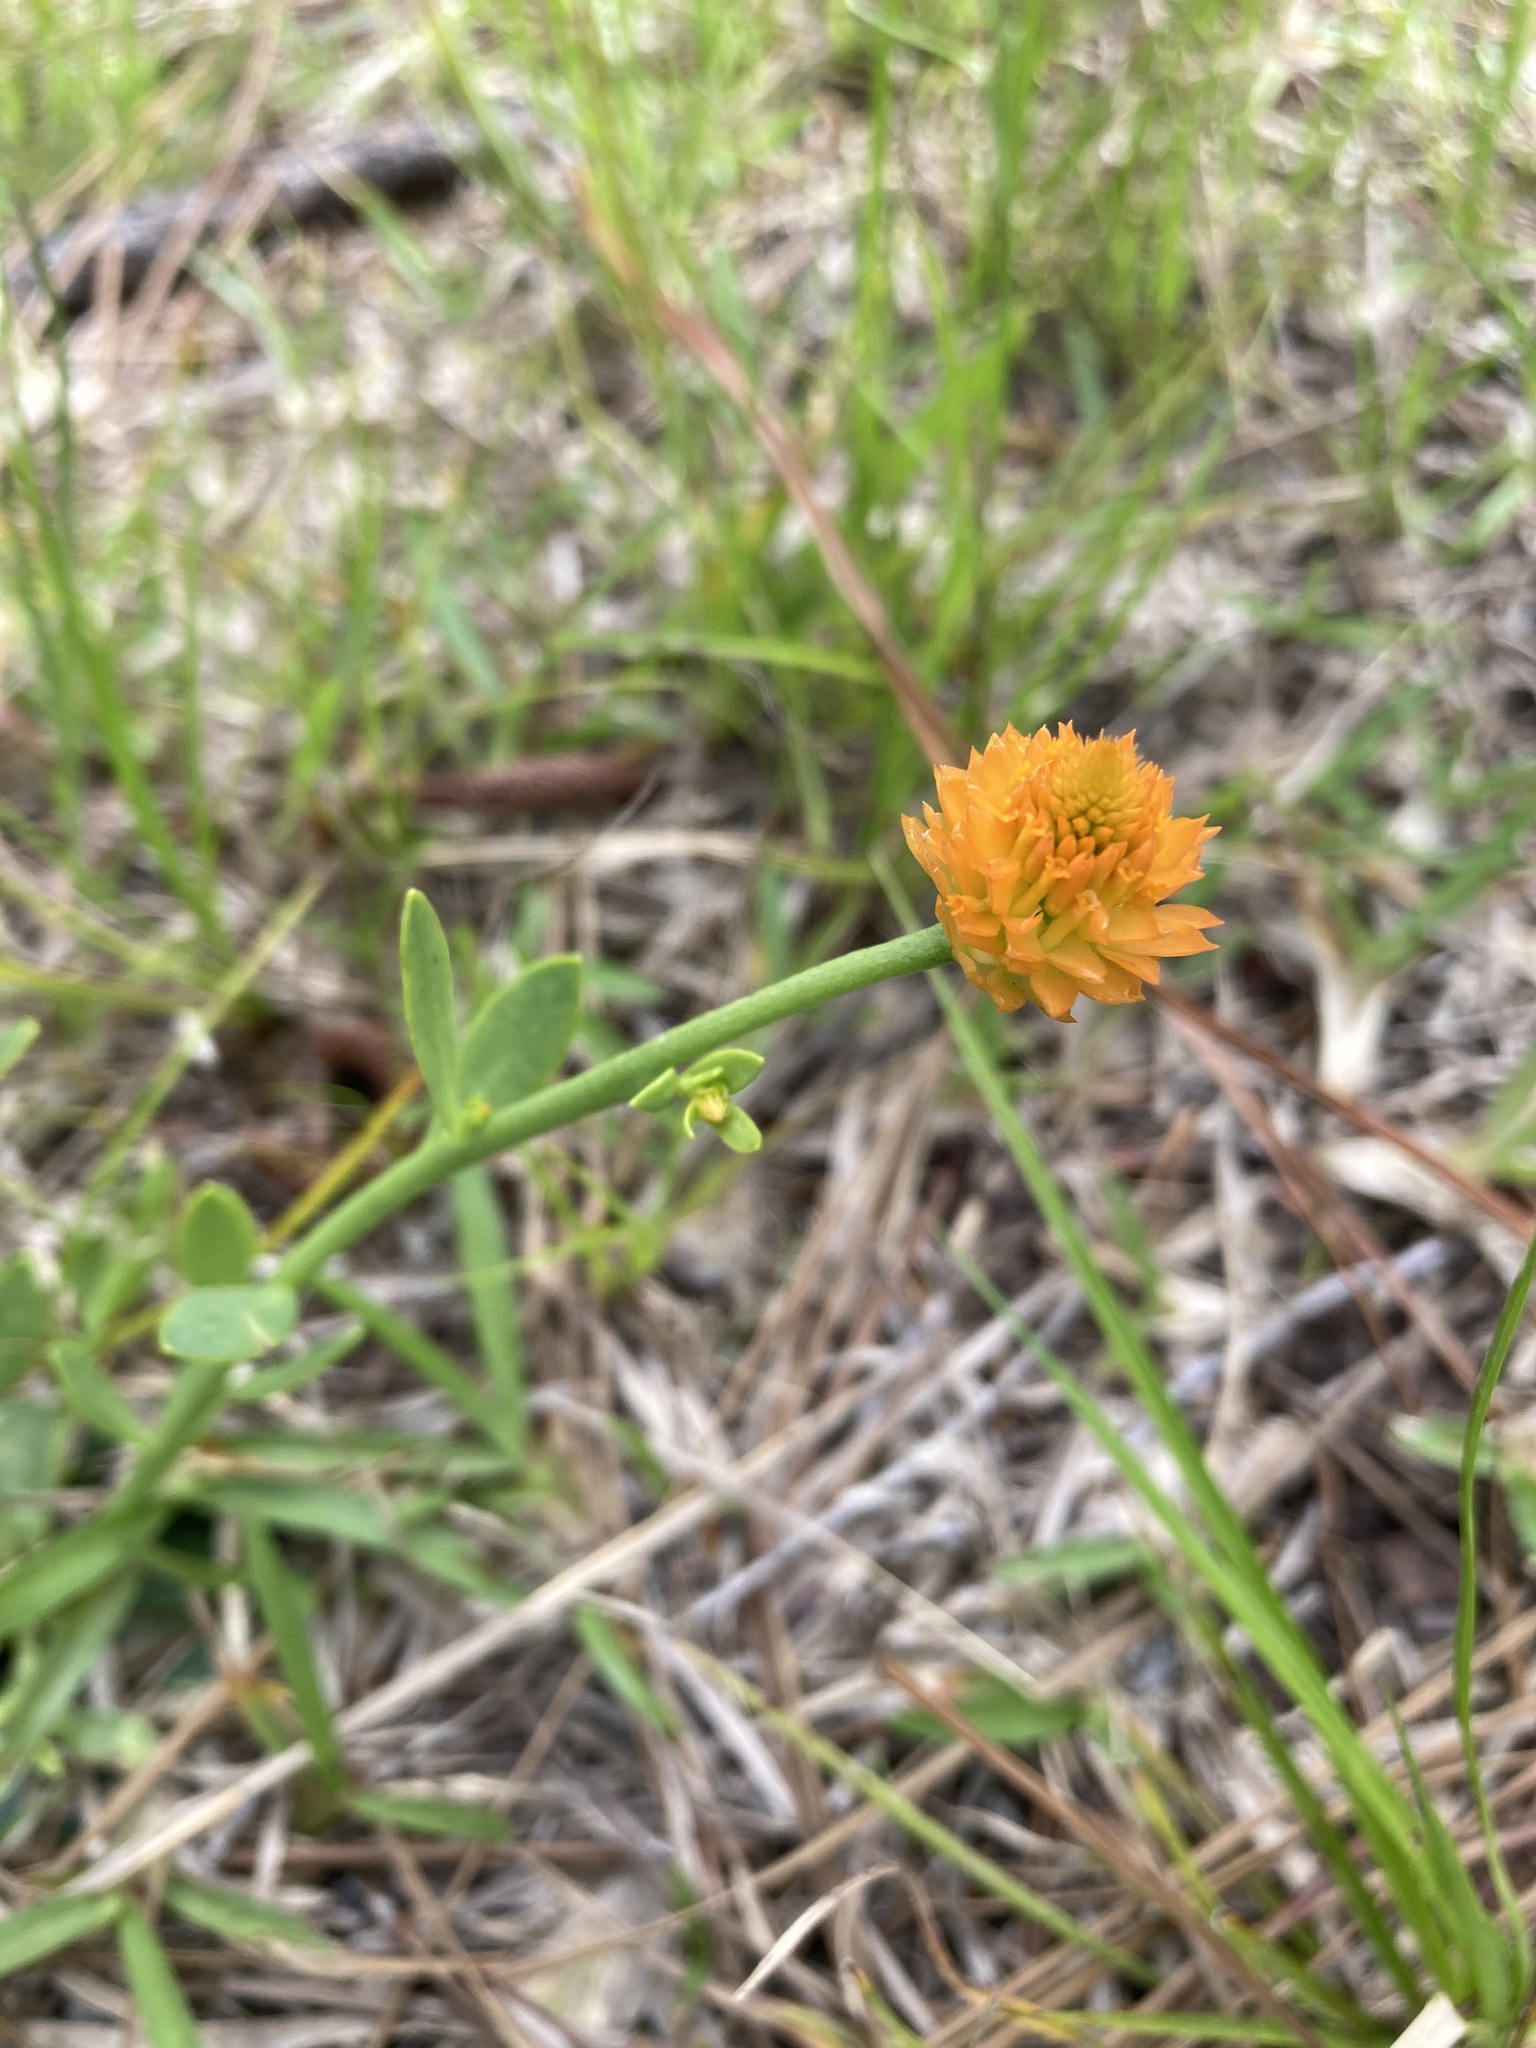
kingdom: Plantae
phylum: Tracheophyta
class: Magnoliopsida
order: Fabales
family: Polygalaceae
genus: Polygala
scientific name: Polygala lutea
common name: Orange milkwort
